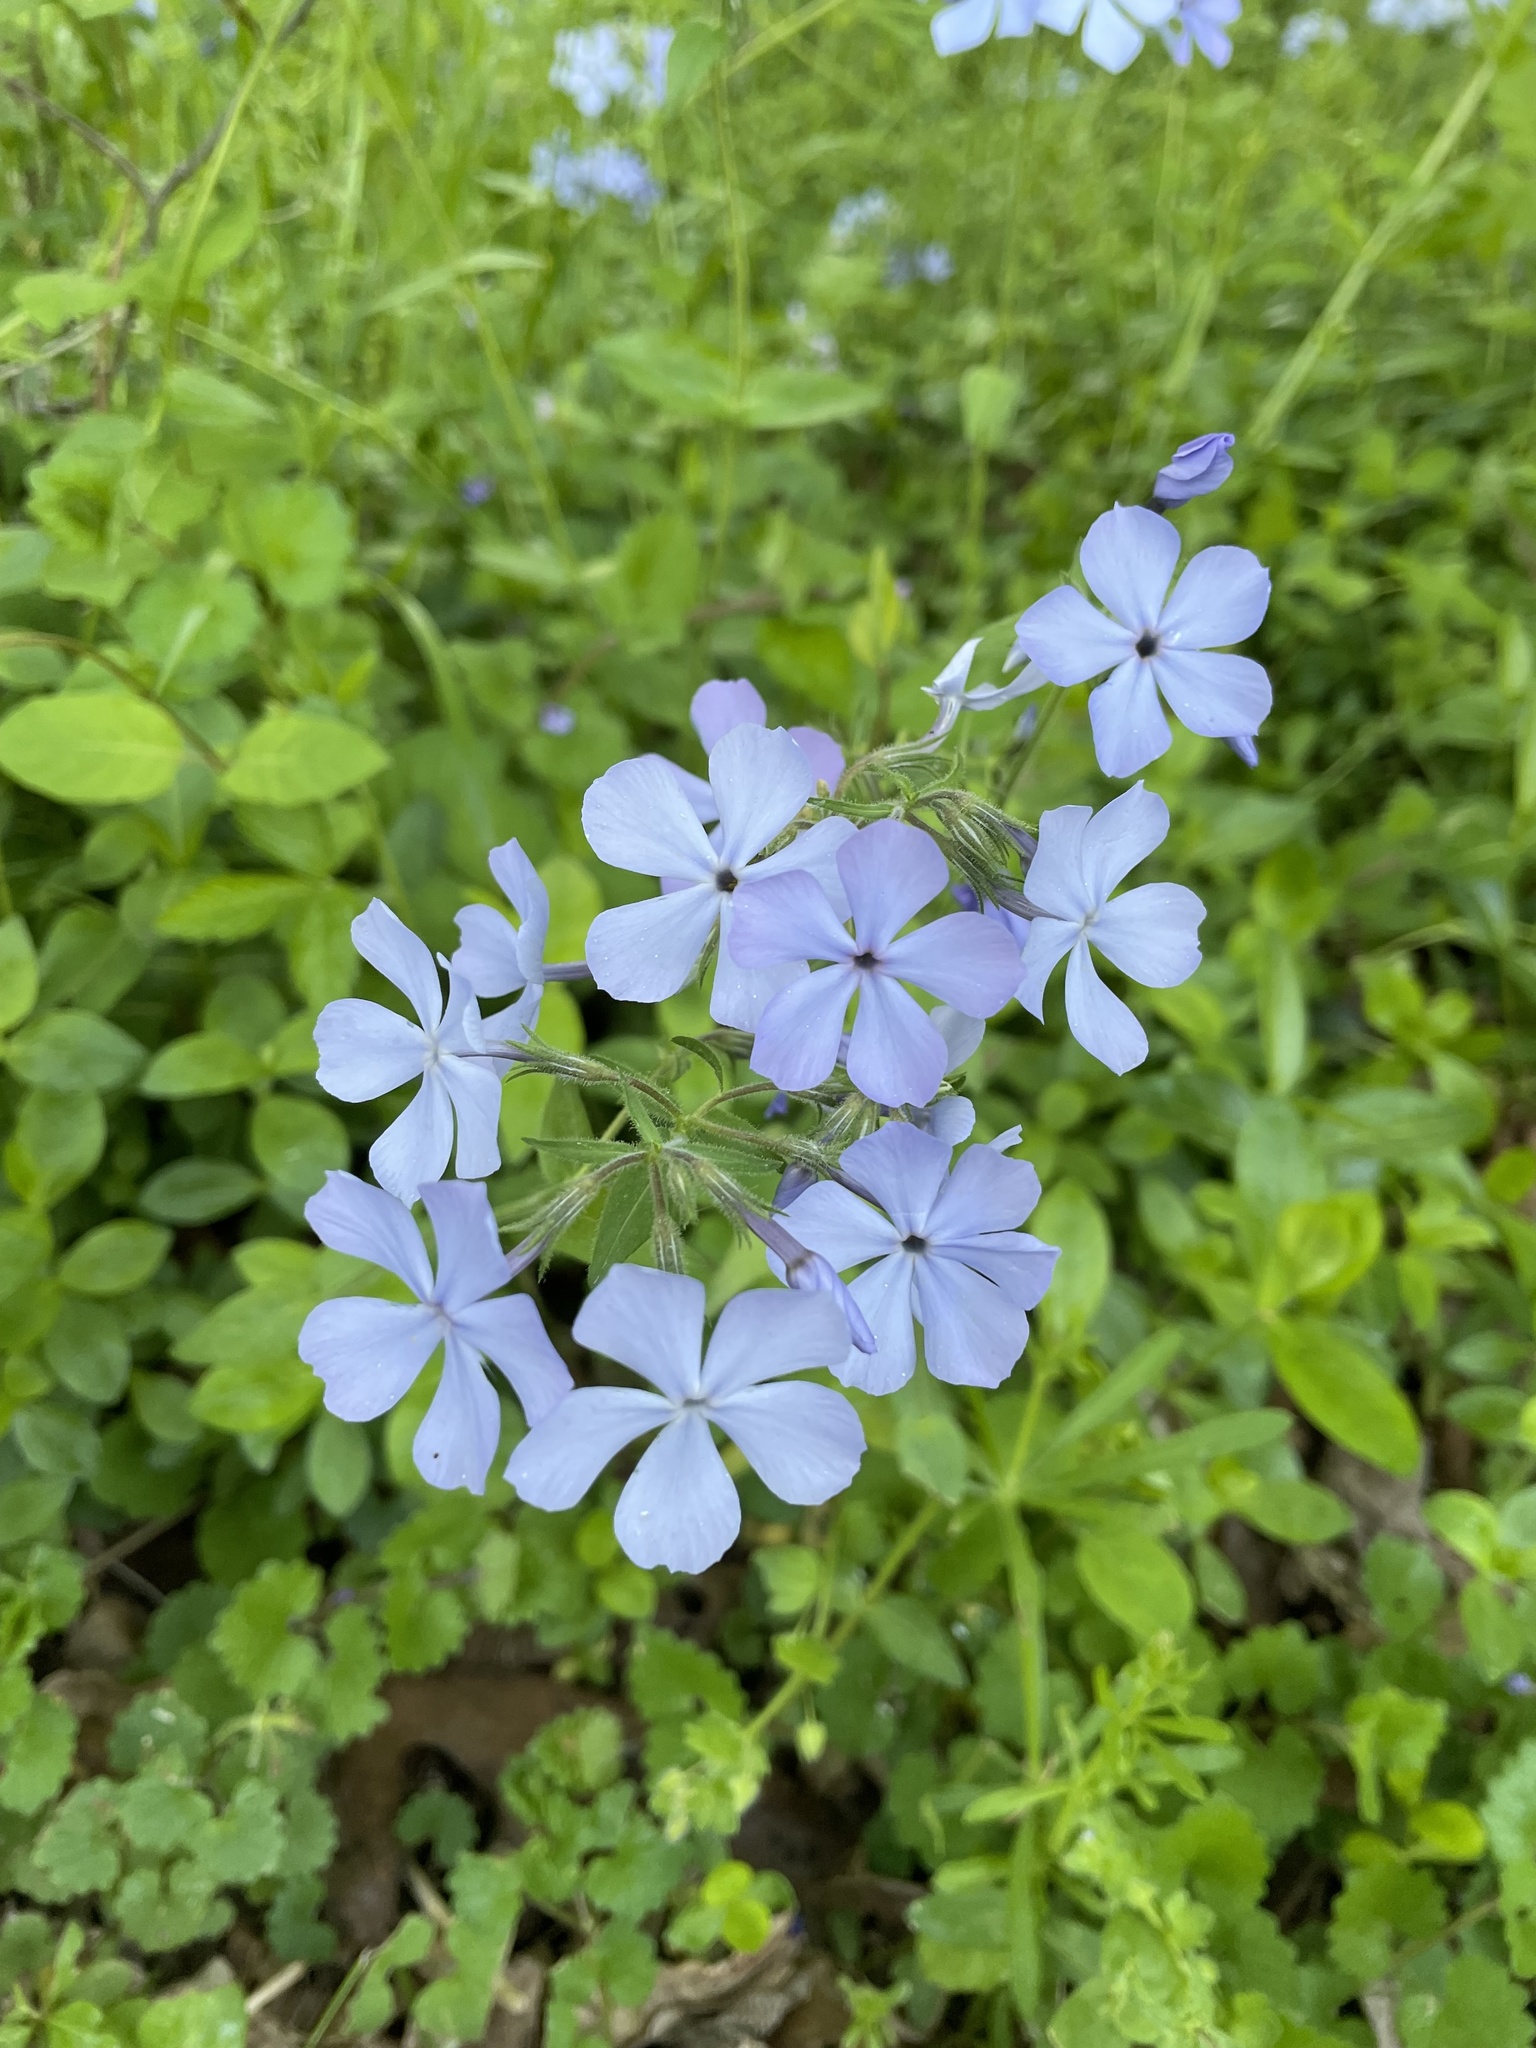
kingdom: Plantae
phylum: Tracheophyta
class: Magnoliopsida
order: Ericales
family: Polemoniaceae
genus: Phlox
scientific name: Phlox divaricata
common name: Blue phlox
